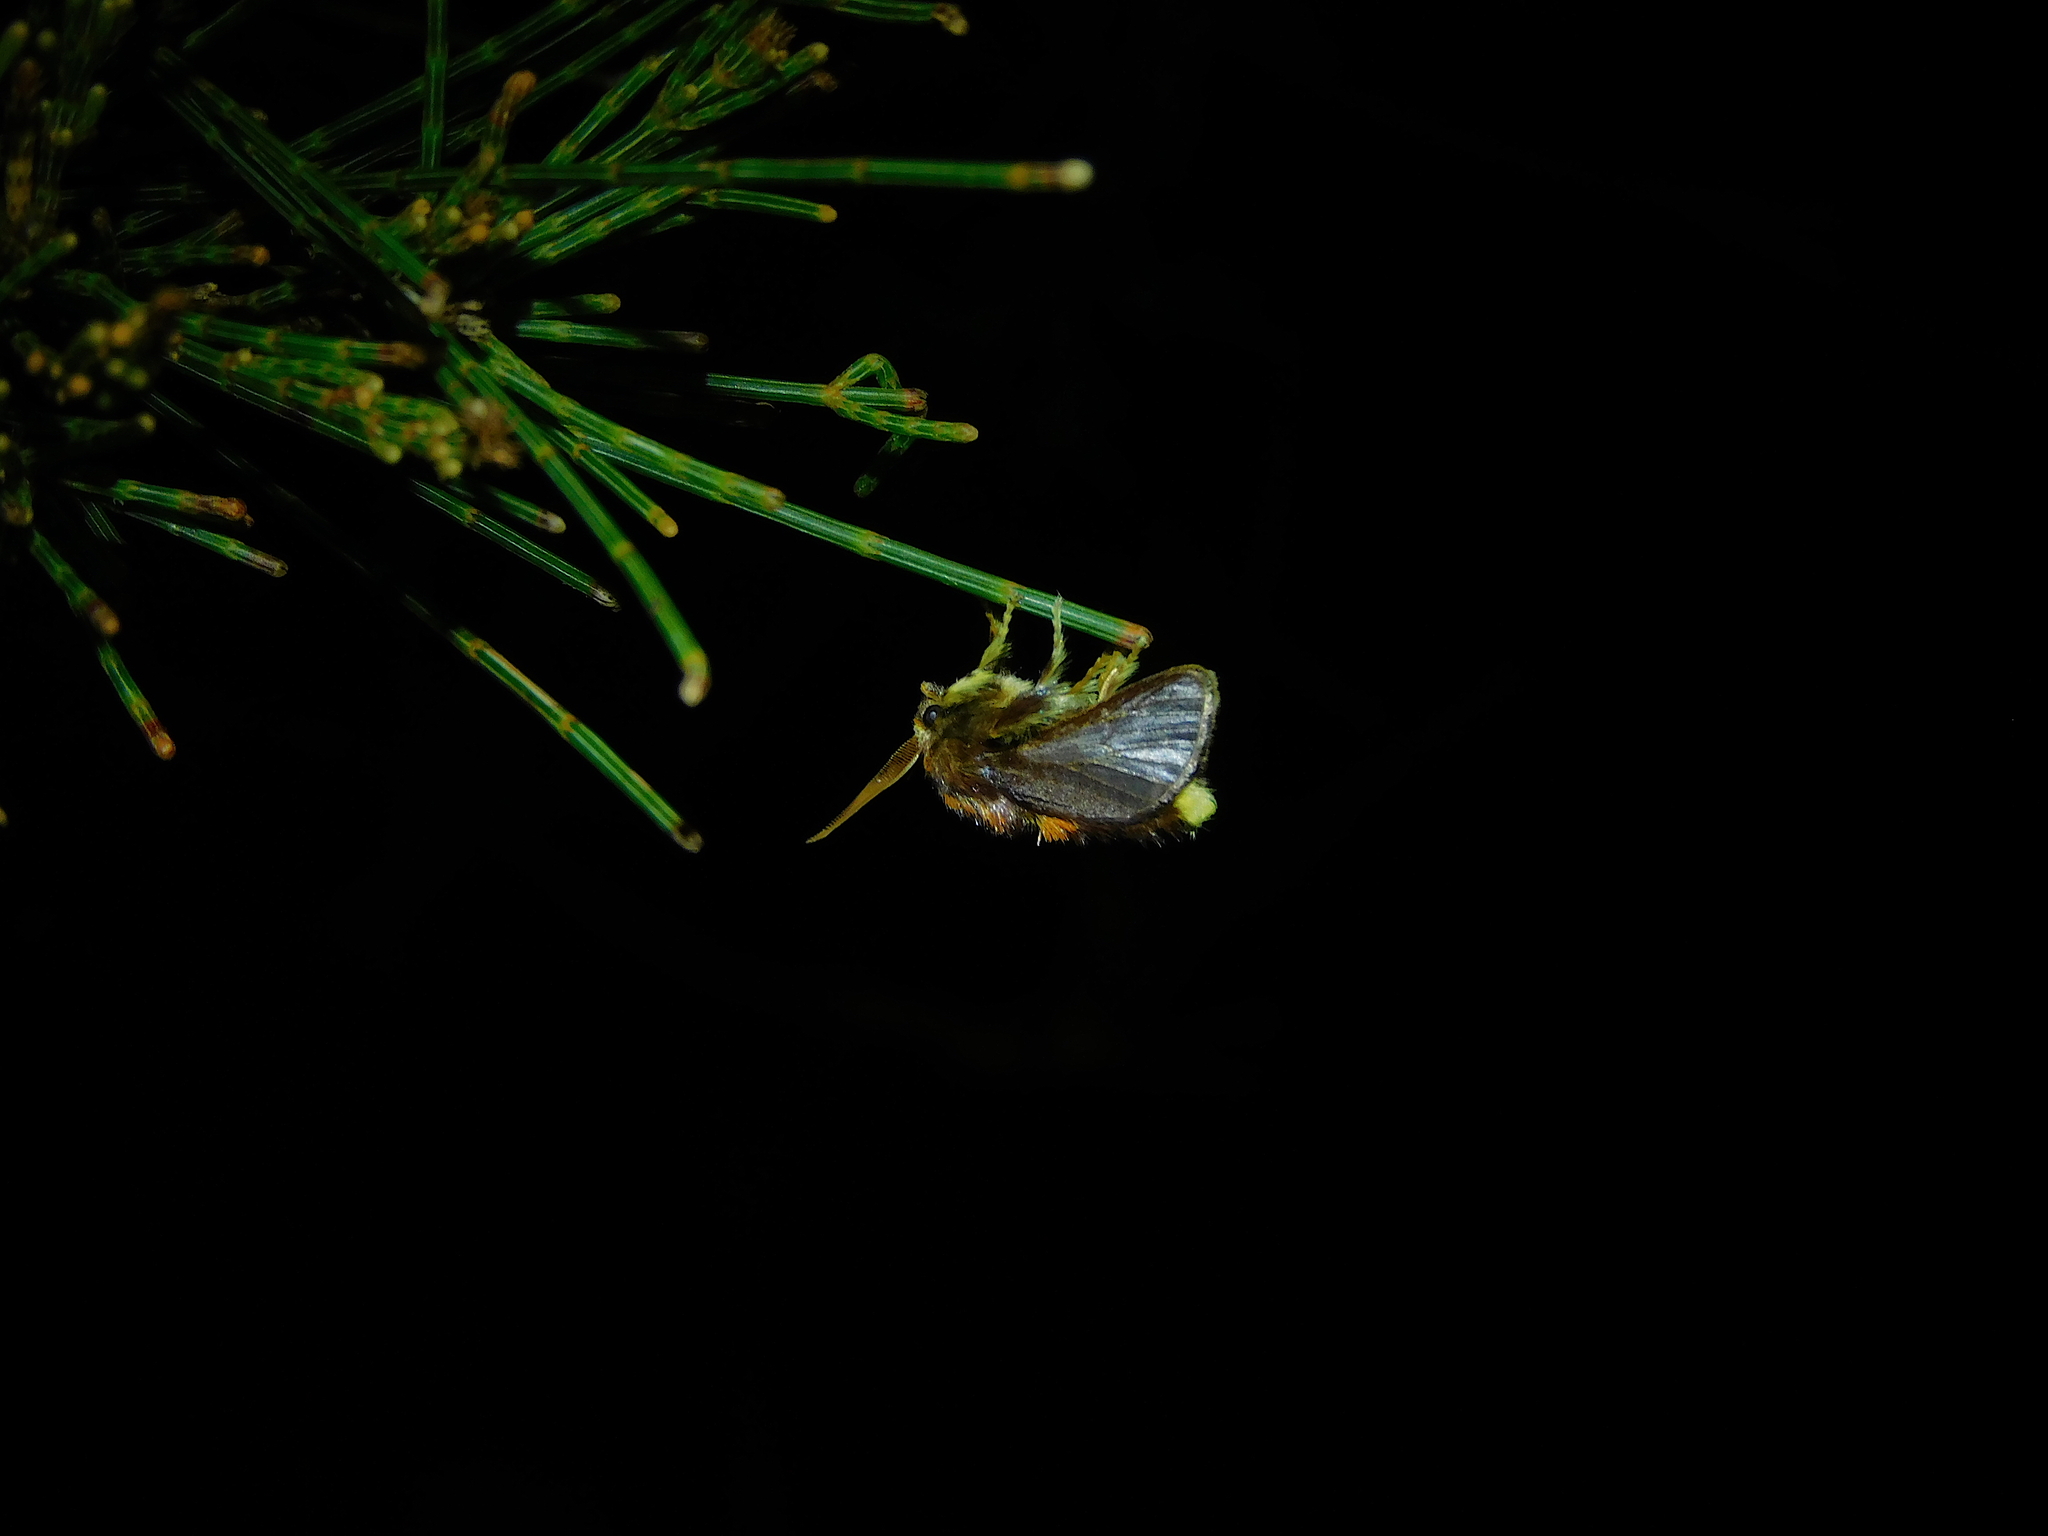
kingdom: Animalia
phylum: Arthropoda
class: Insecta
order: Lepidoptera
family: Limacodidae
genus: Doratifera
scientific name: Doratifera oxleyi
